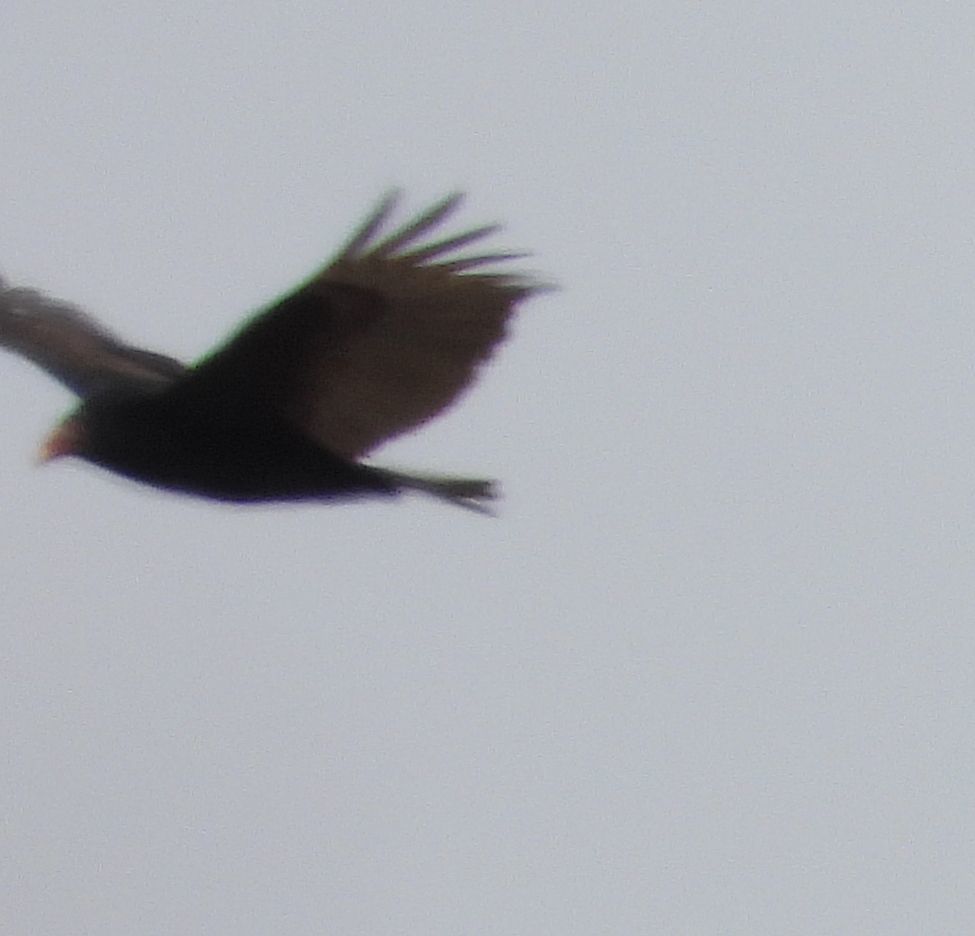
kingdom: Animalia
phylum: Chordata
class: Aves
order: Accipitriformes
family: Cathartidae
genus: Cathartes
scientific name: Cathartes aura
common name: Turkey vulture
